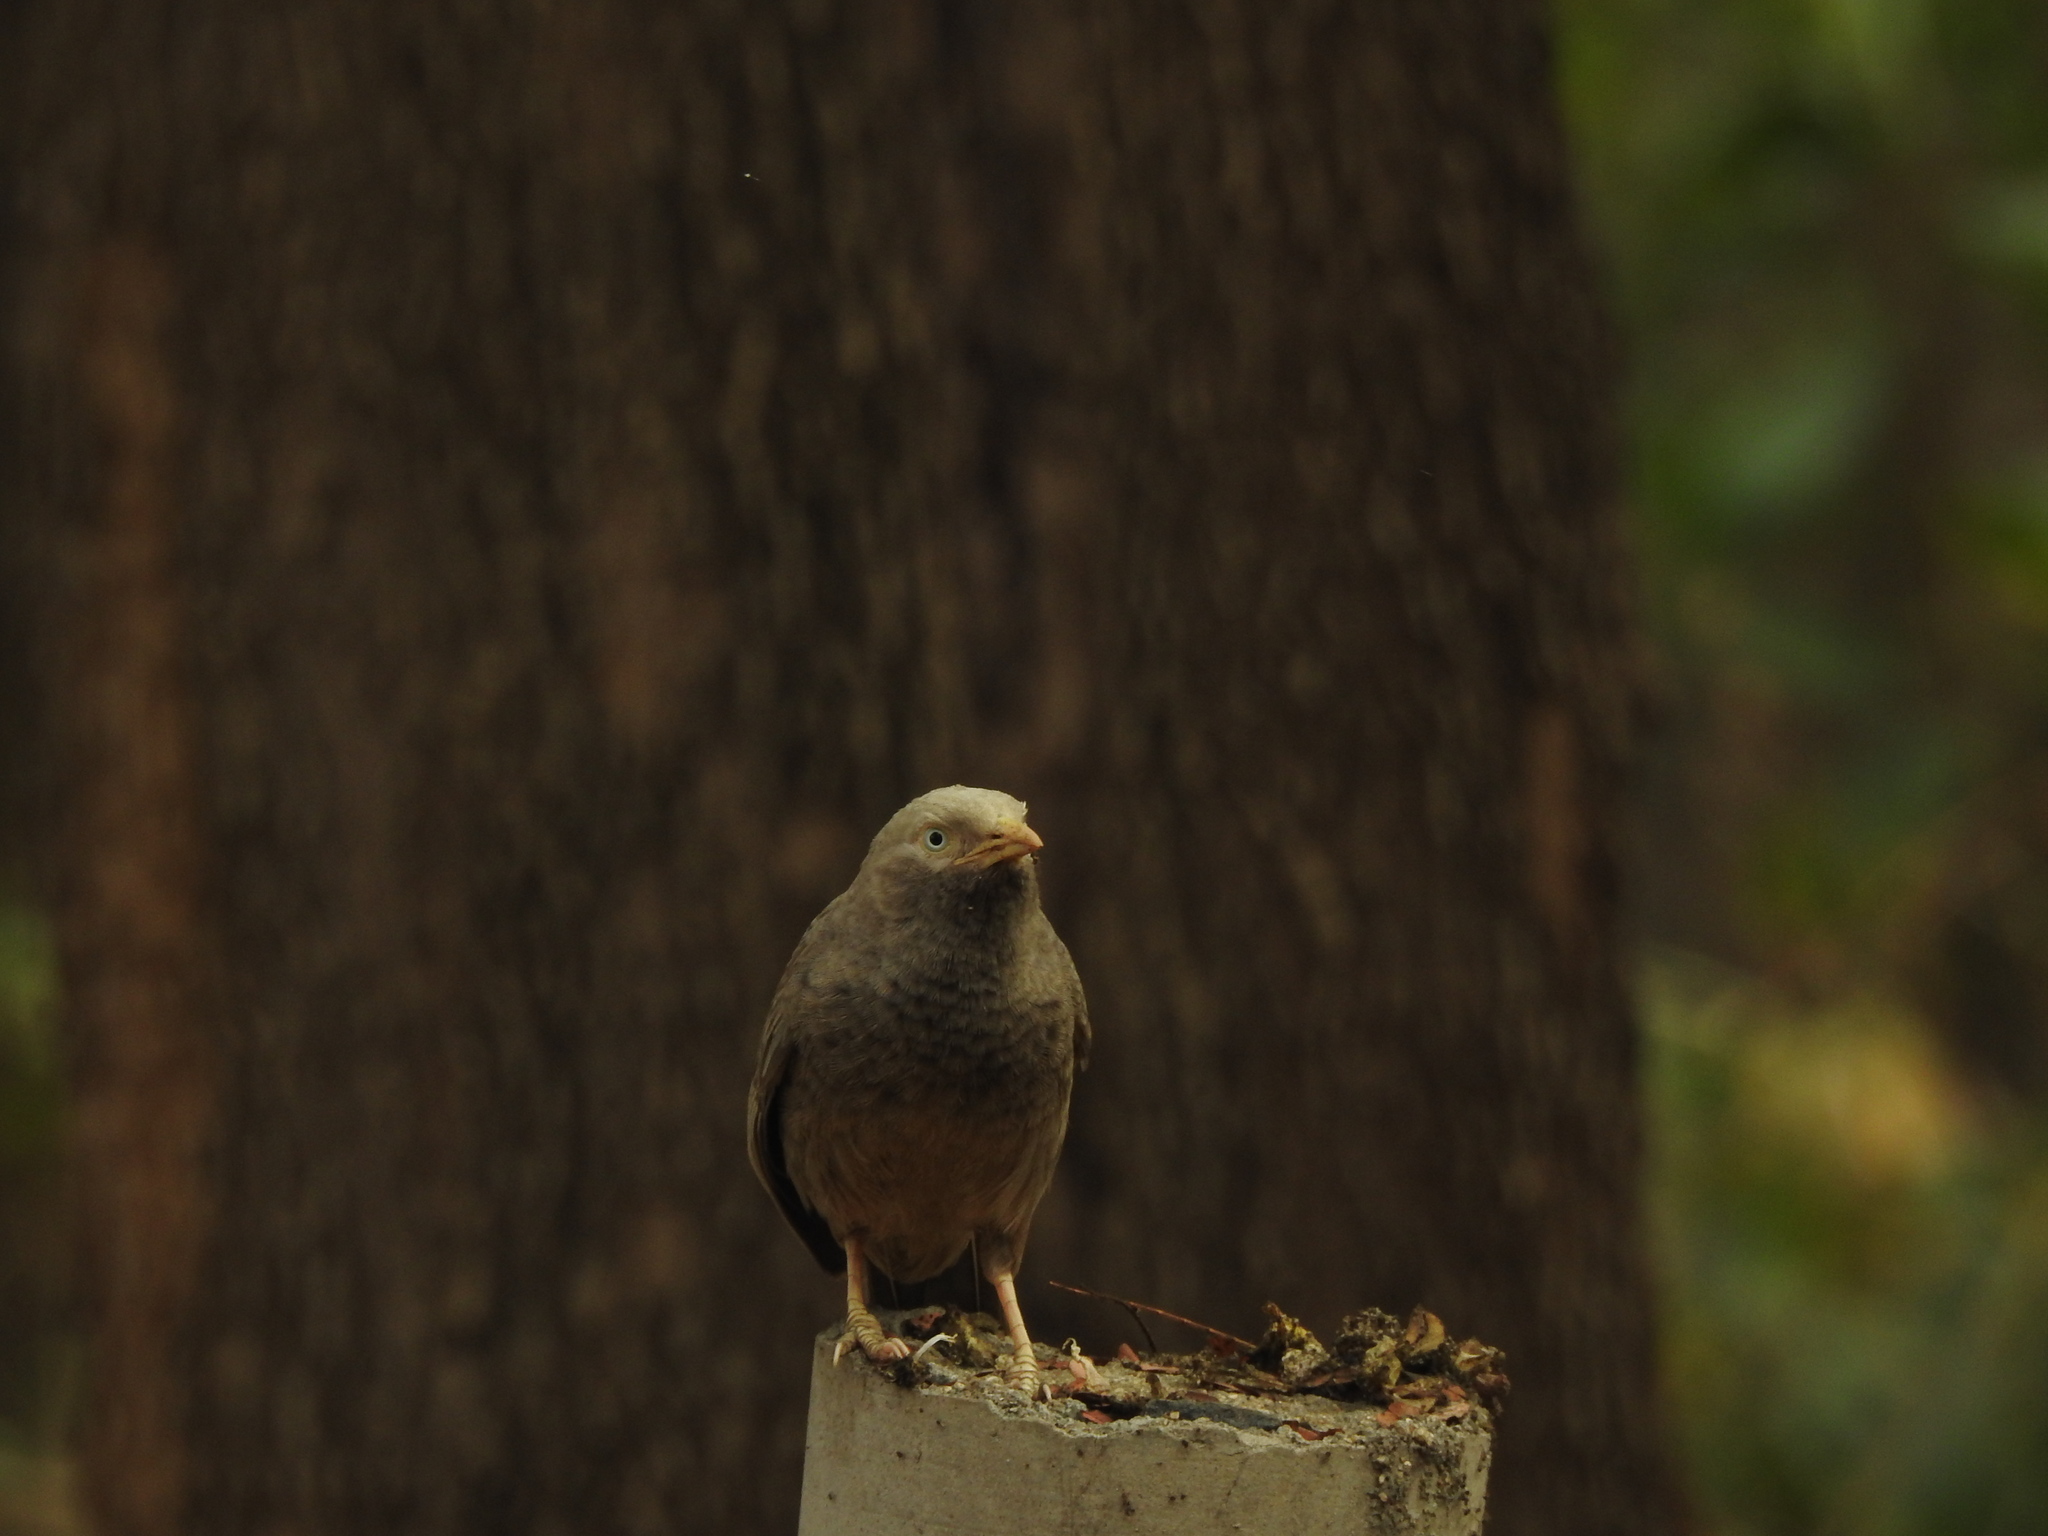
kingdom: Animalia
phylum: Chordata
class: Aves
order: Passeriformes
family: Leiothrichidae
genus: Turdoides
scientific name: Turdoides affinis
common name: Yellow-billed babbler
